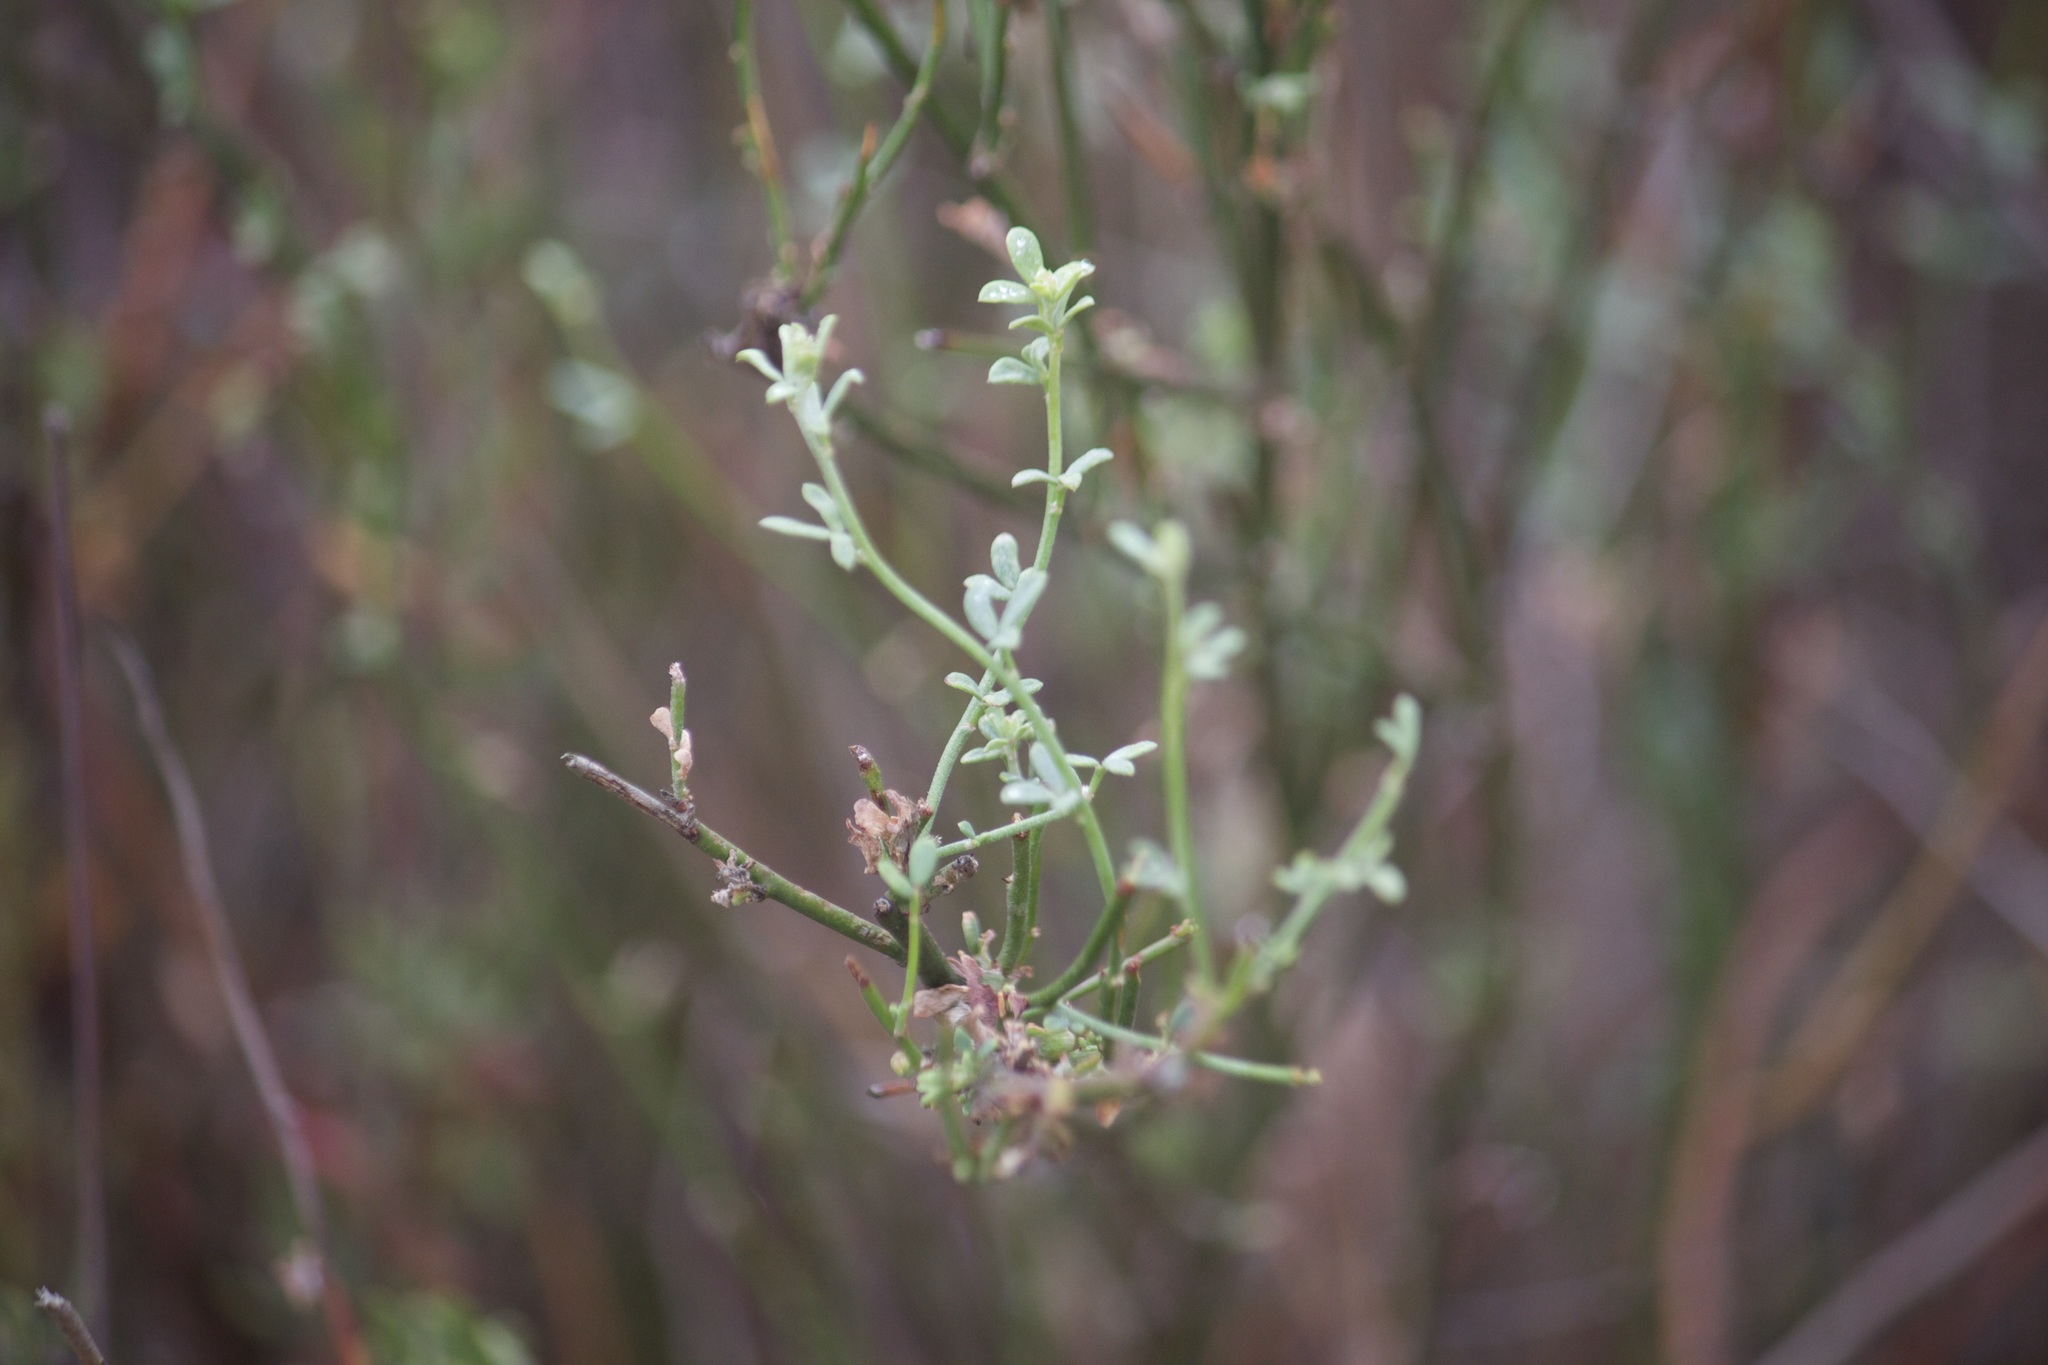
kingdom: Plantae
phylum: Tracheophyta
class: Magnoliopsida
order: Fabales
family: Fabaceae
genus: Acmispon
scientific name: Acmispon glaber
